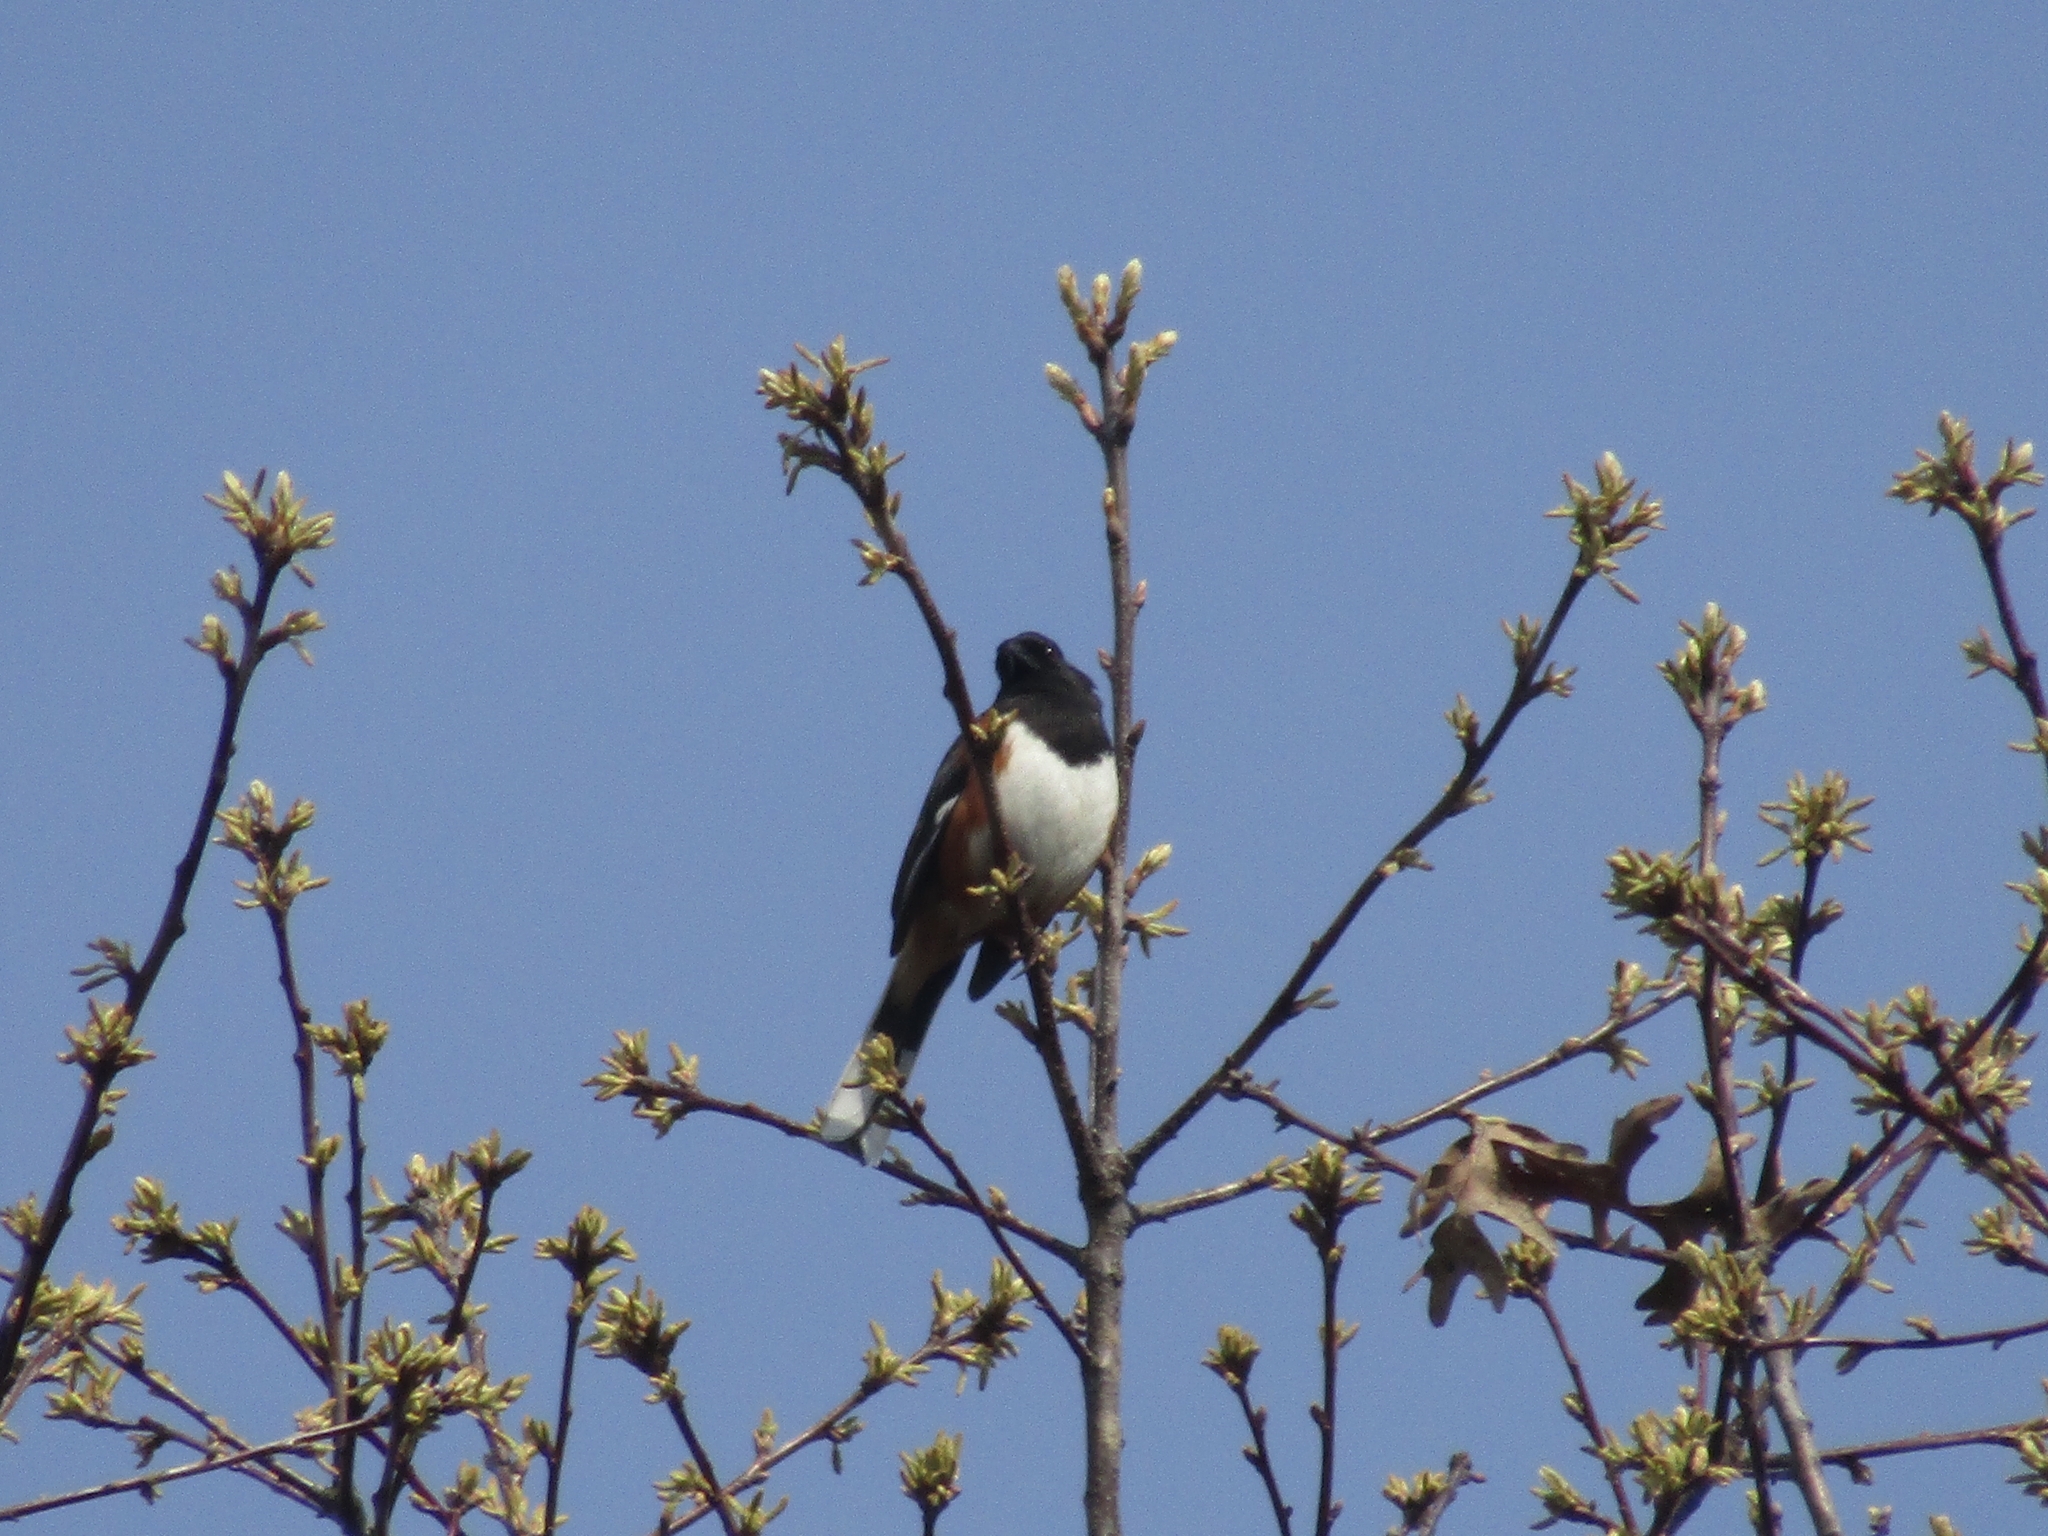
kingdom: Animalia
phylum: Chordata
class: Aves
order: Passeriformes
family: Passerellidae
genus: Pipilo
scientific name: Pipilo erythrophthalmus
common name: Eastern towhee
